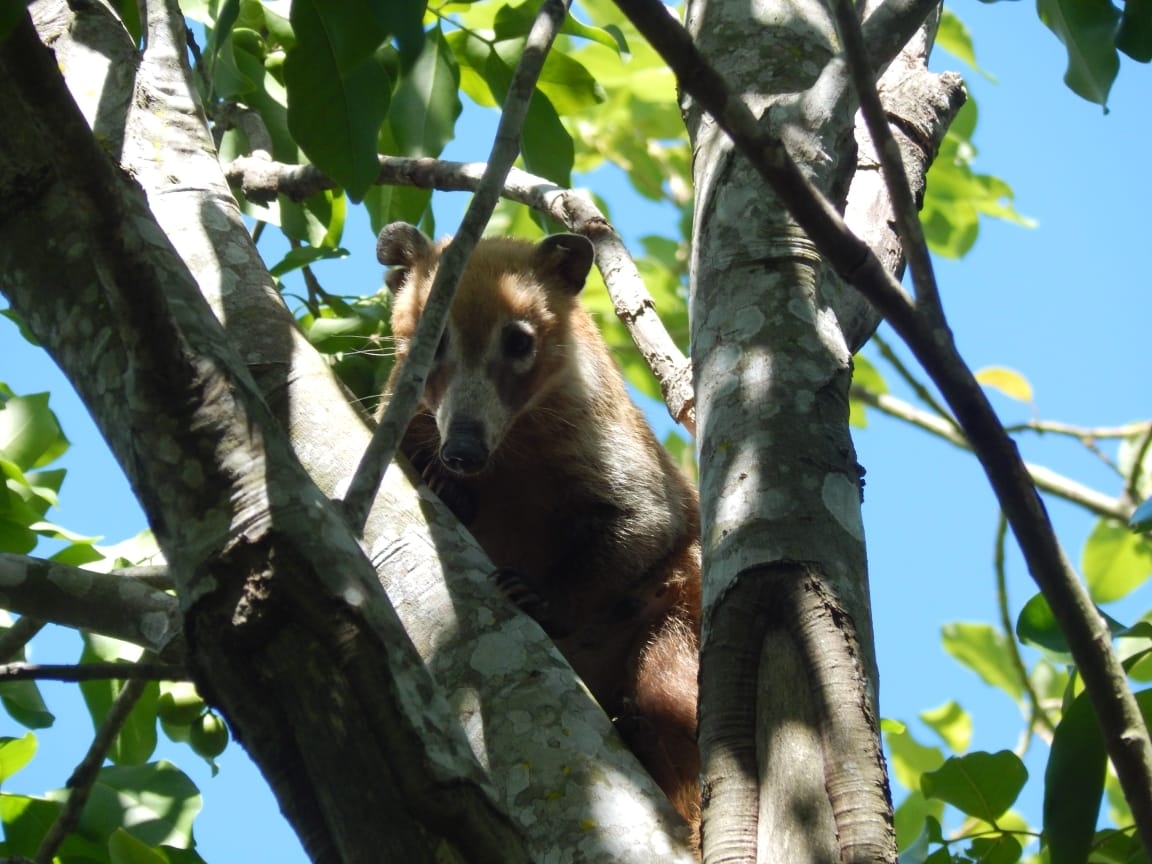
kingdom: Animalia
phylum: Chordata
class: Mammalia
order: Carnivora
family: Procyonidae
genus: Nasua
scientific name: Nasua narica
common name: White-nosed coati
